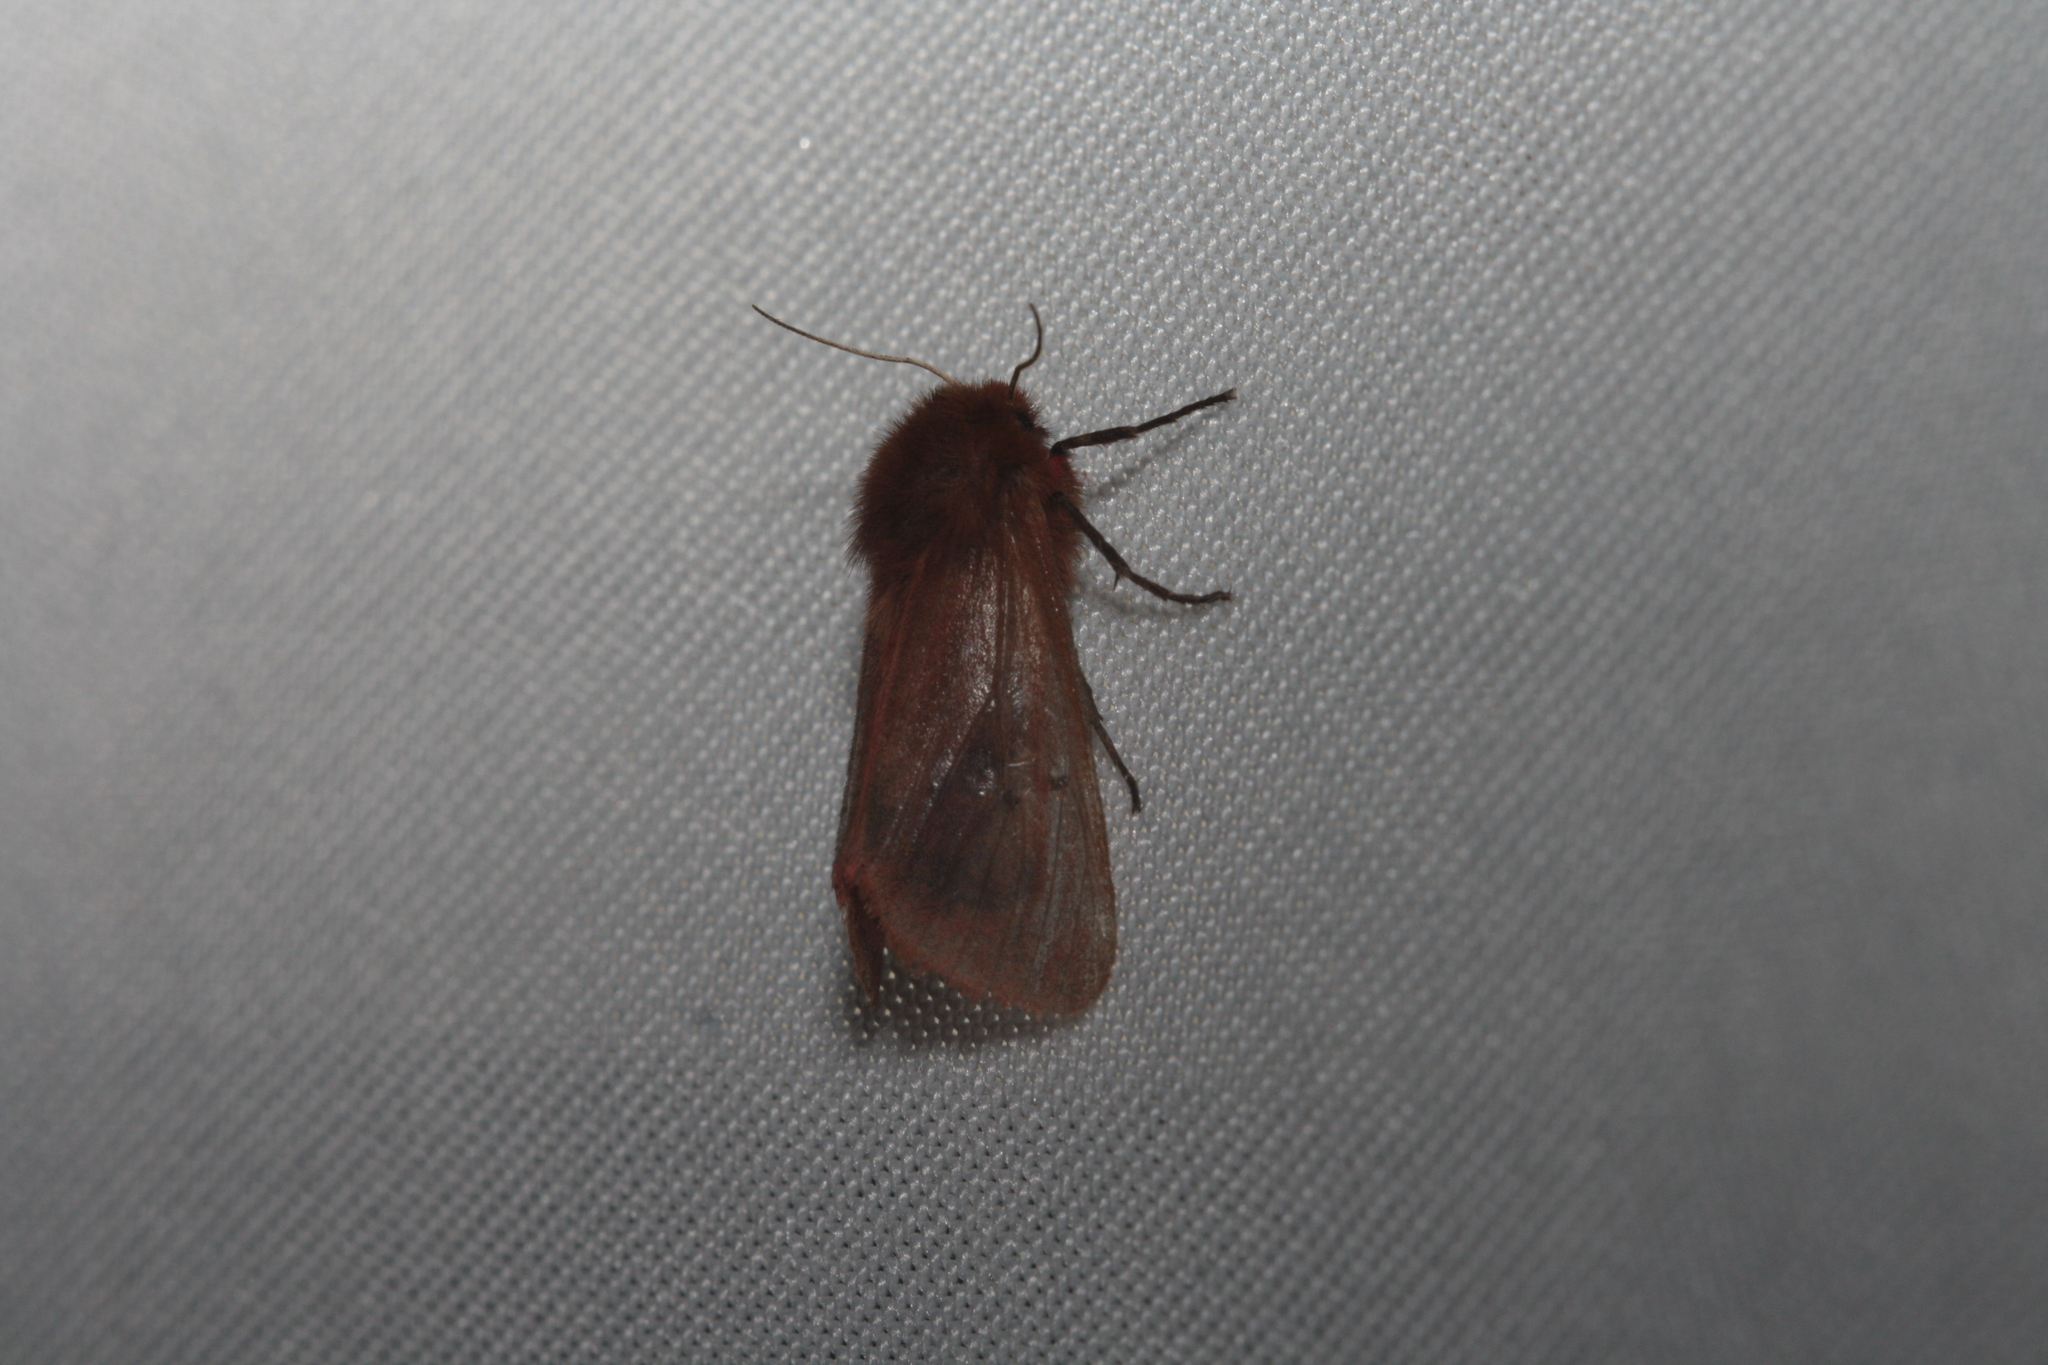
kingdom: Animalia
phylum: Arthropoda
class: Insecta
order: Lepidoptera
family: Erebidae
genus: Phragmatobia
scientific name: Phragmatobia fuliginosa
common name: Ruby tiger
